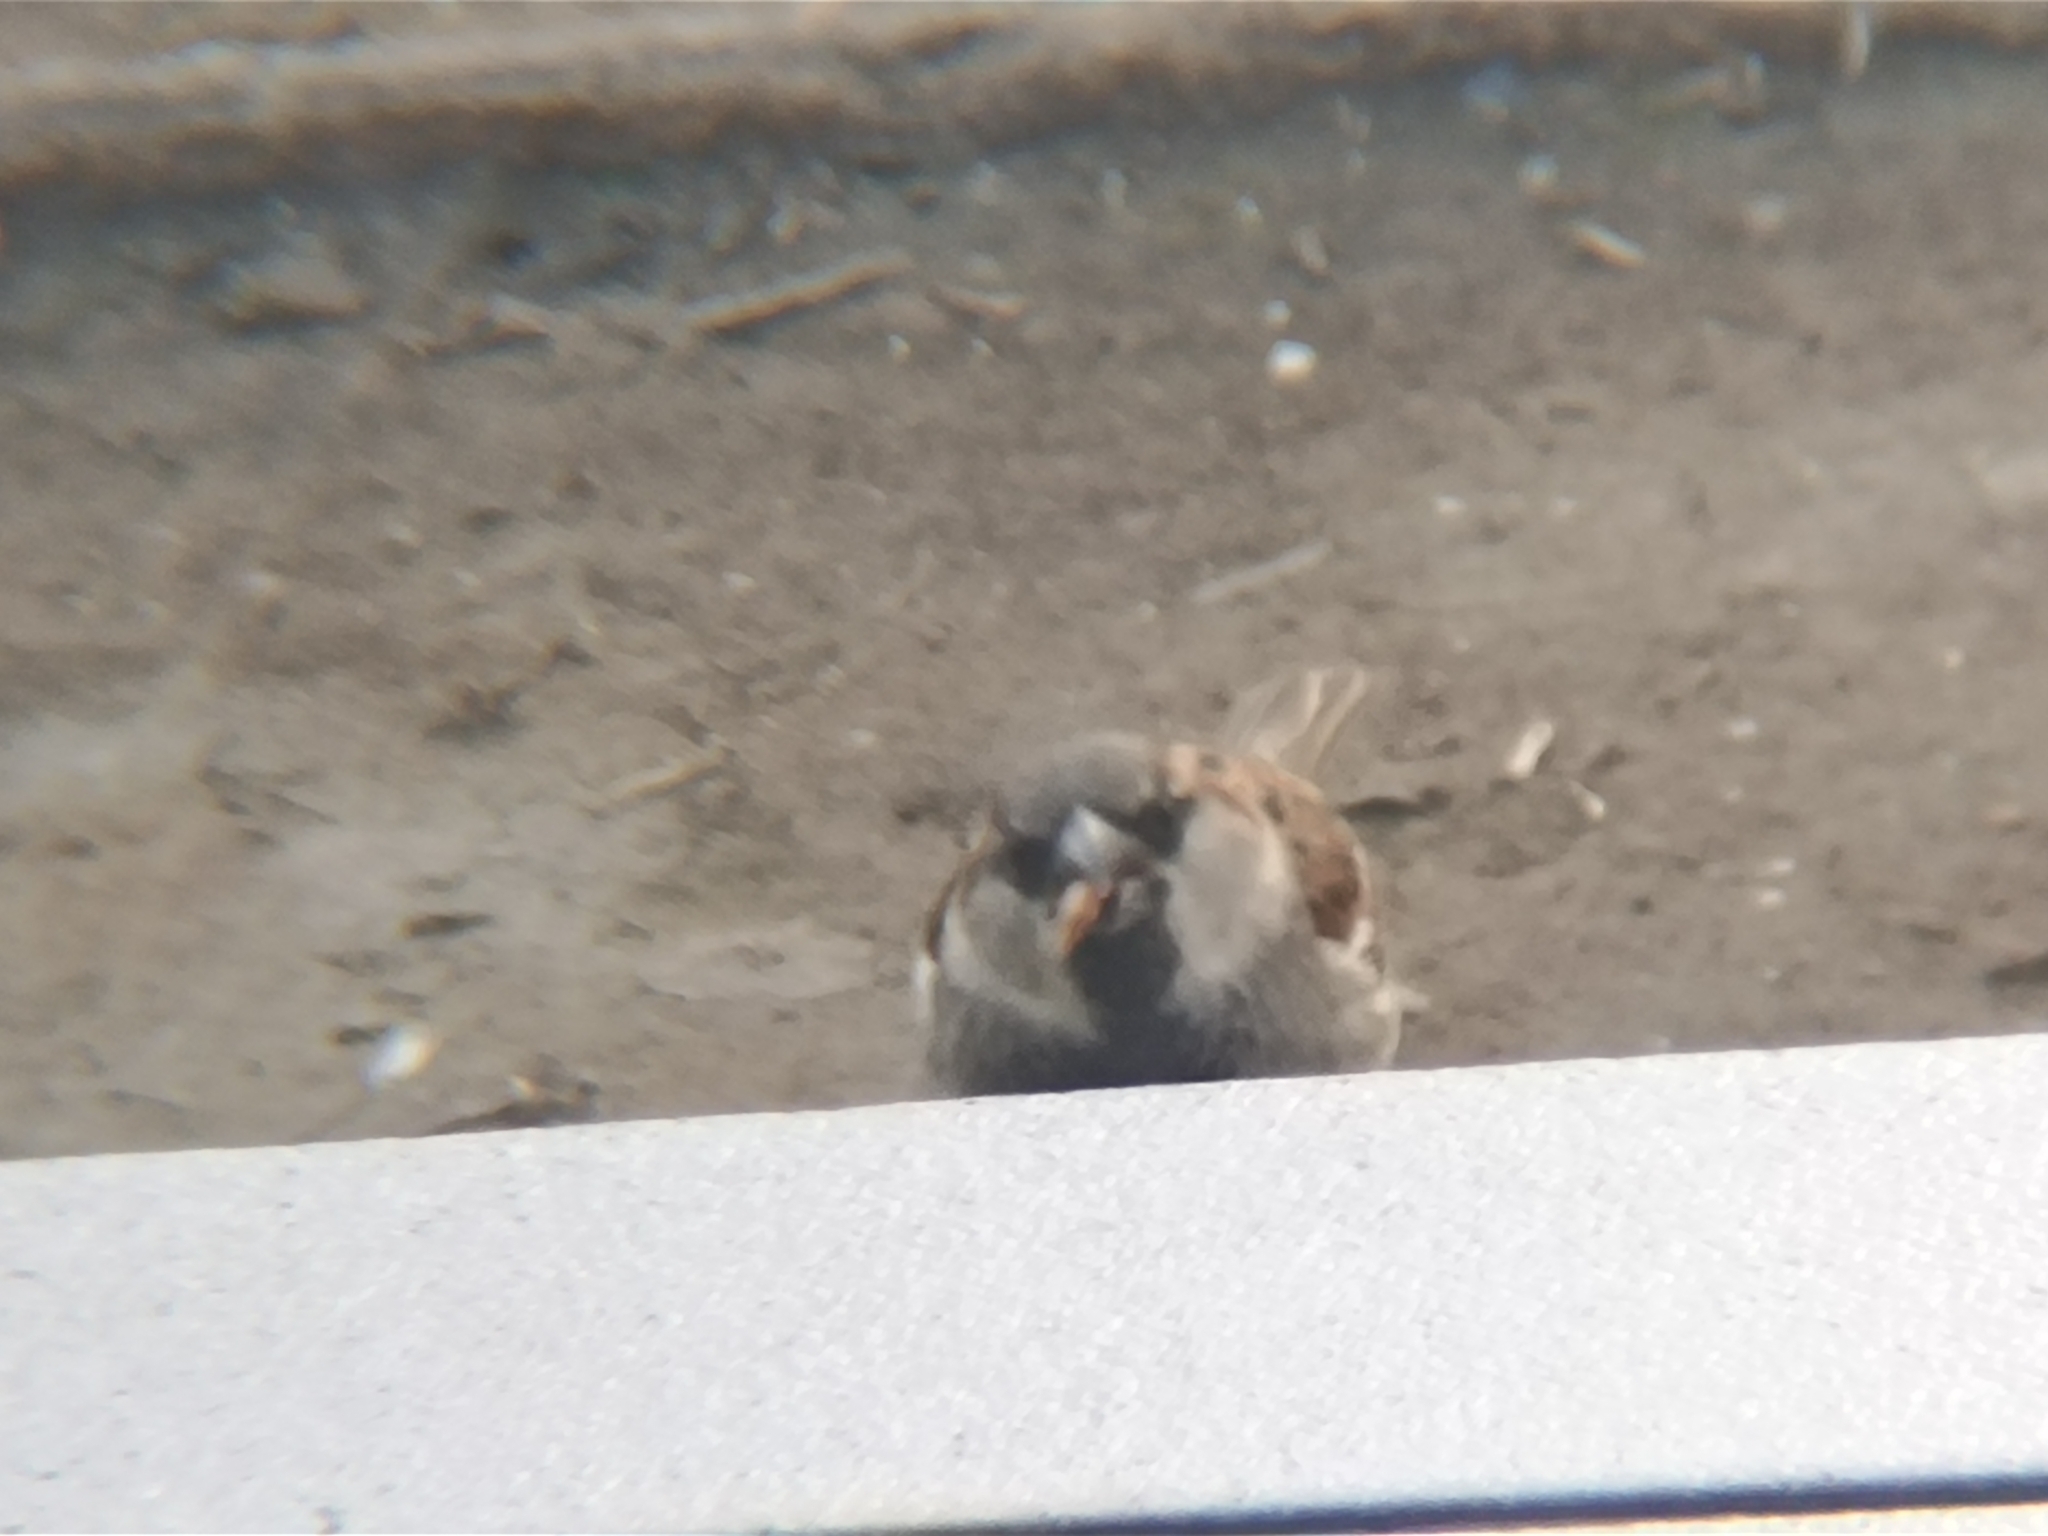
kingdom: Animalia
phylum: Chordata
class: Aves
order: Passeriformes
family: Passeridae
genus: Passer
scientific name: Passer domesticus
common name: House sparrow
